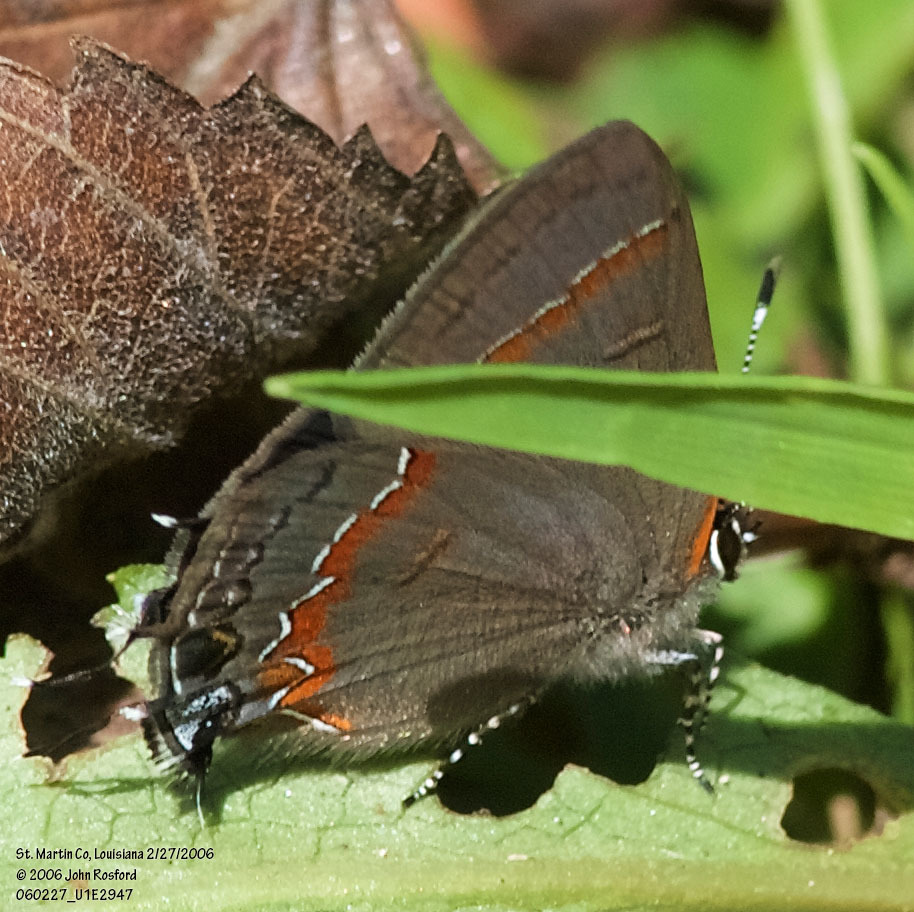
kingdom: Animalia
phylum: Arthropoda
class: Insecta
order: Lepidoptera
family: Lycaenidae
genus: Calycopis
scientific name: Calycopis cecrops
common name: Red-banded hairstreak
